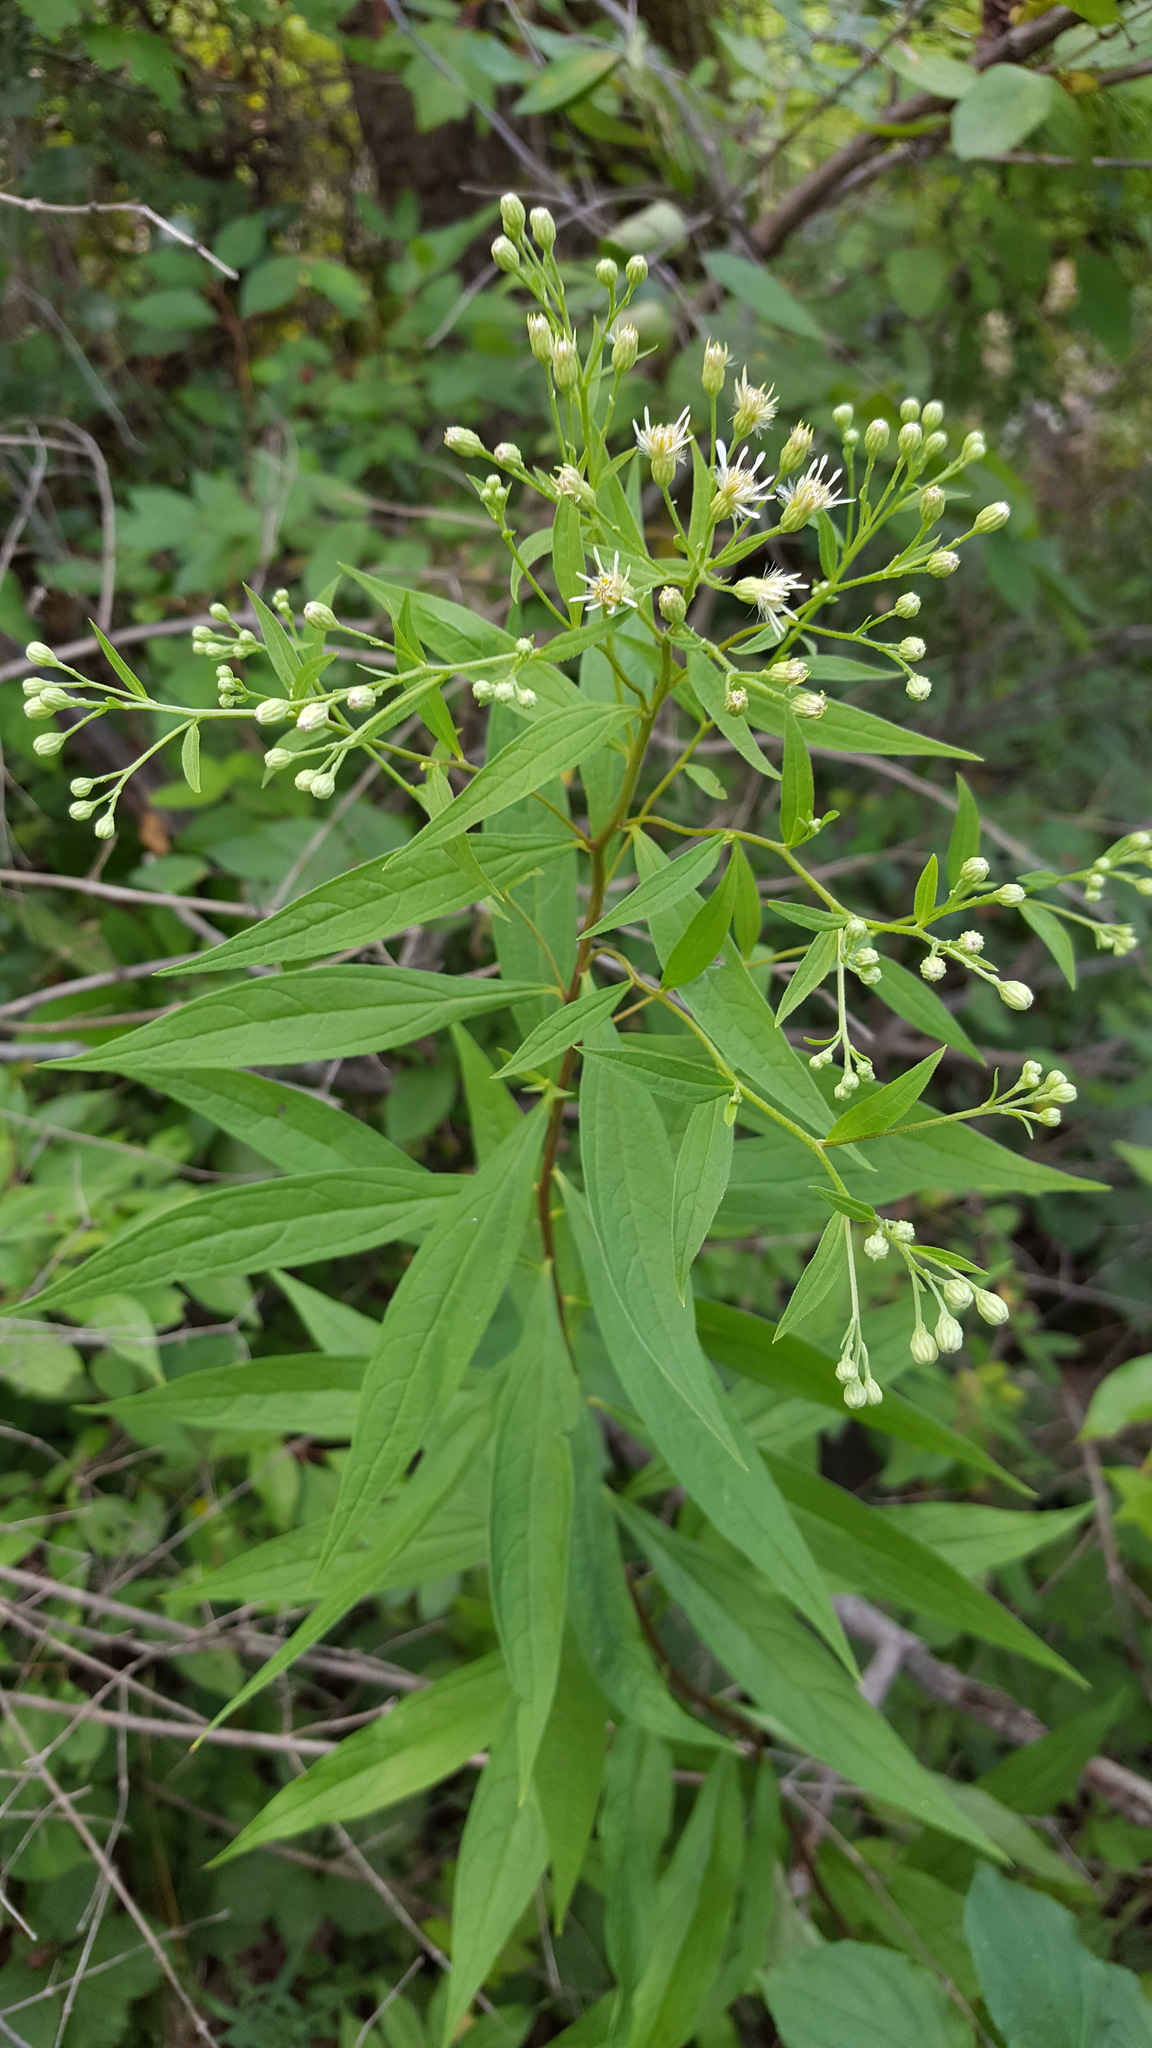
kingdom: Plantae
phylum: Tracheophyta
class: Magnoliopsida
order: Asterales
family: Asteraceae
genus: Doellingeria
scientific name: Doellingeria umbellata
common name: Flat-top white aster
